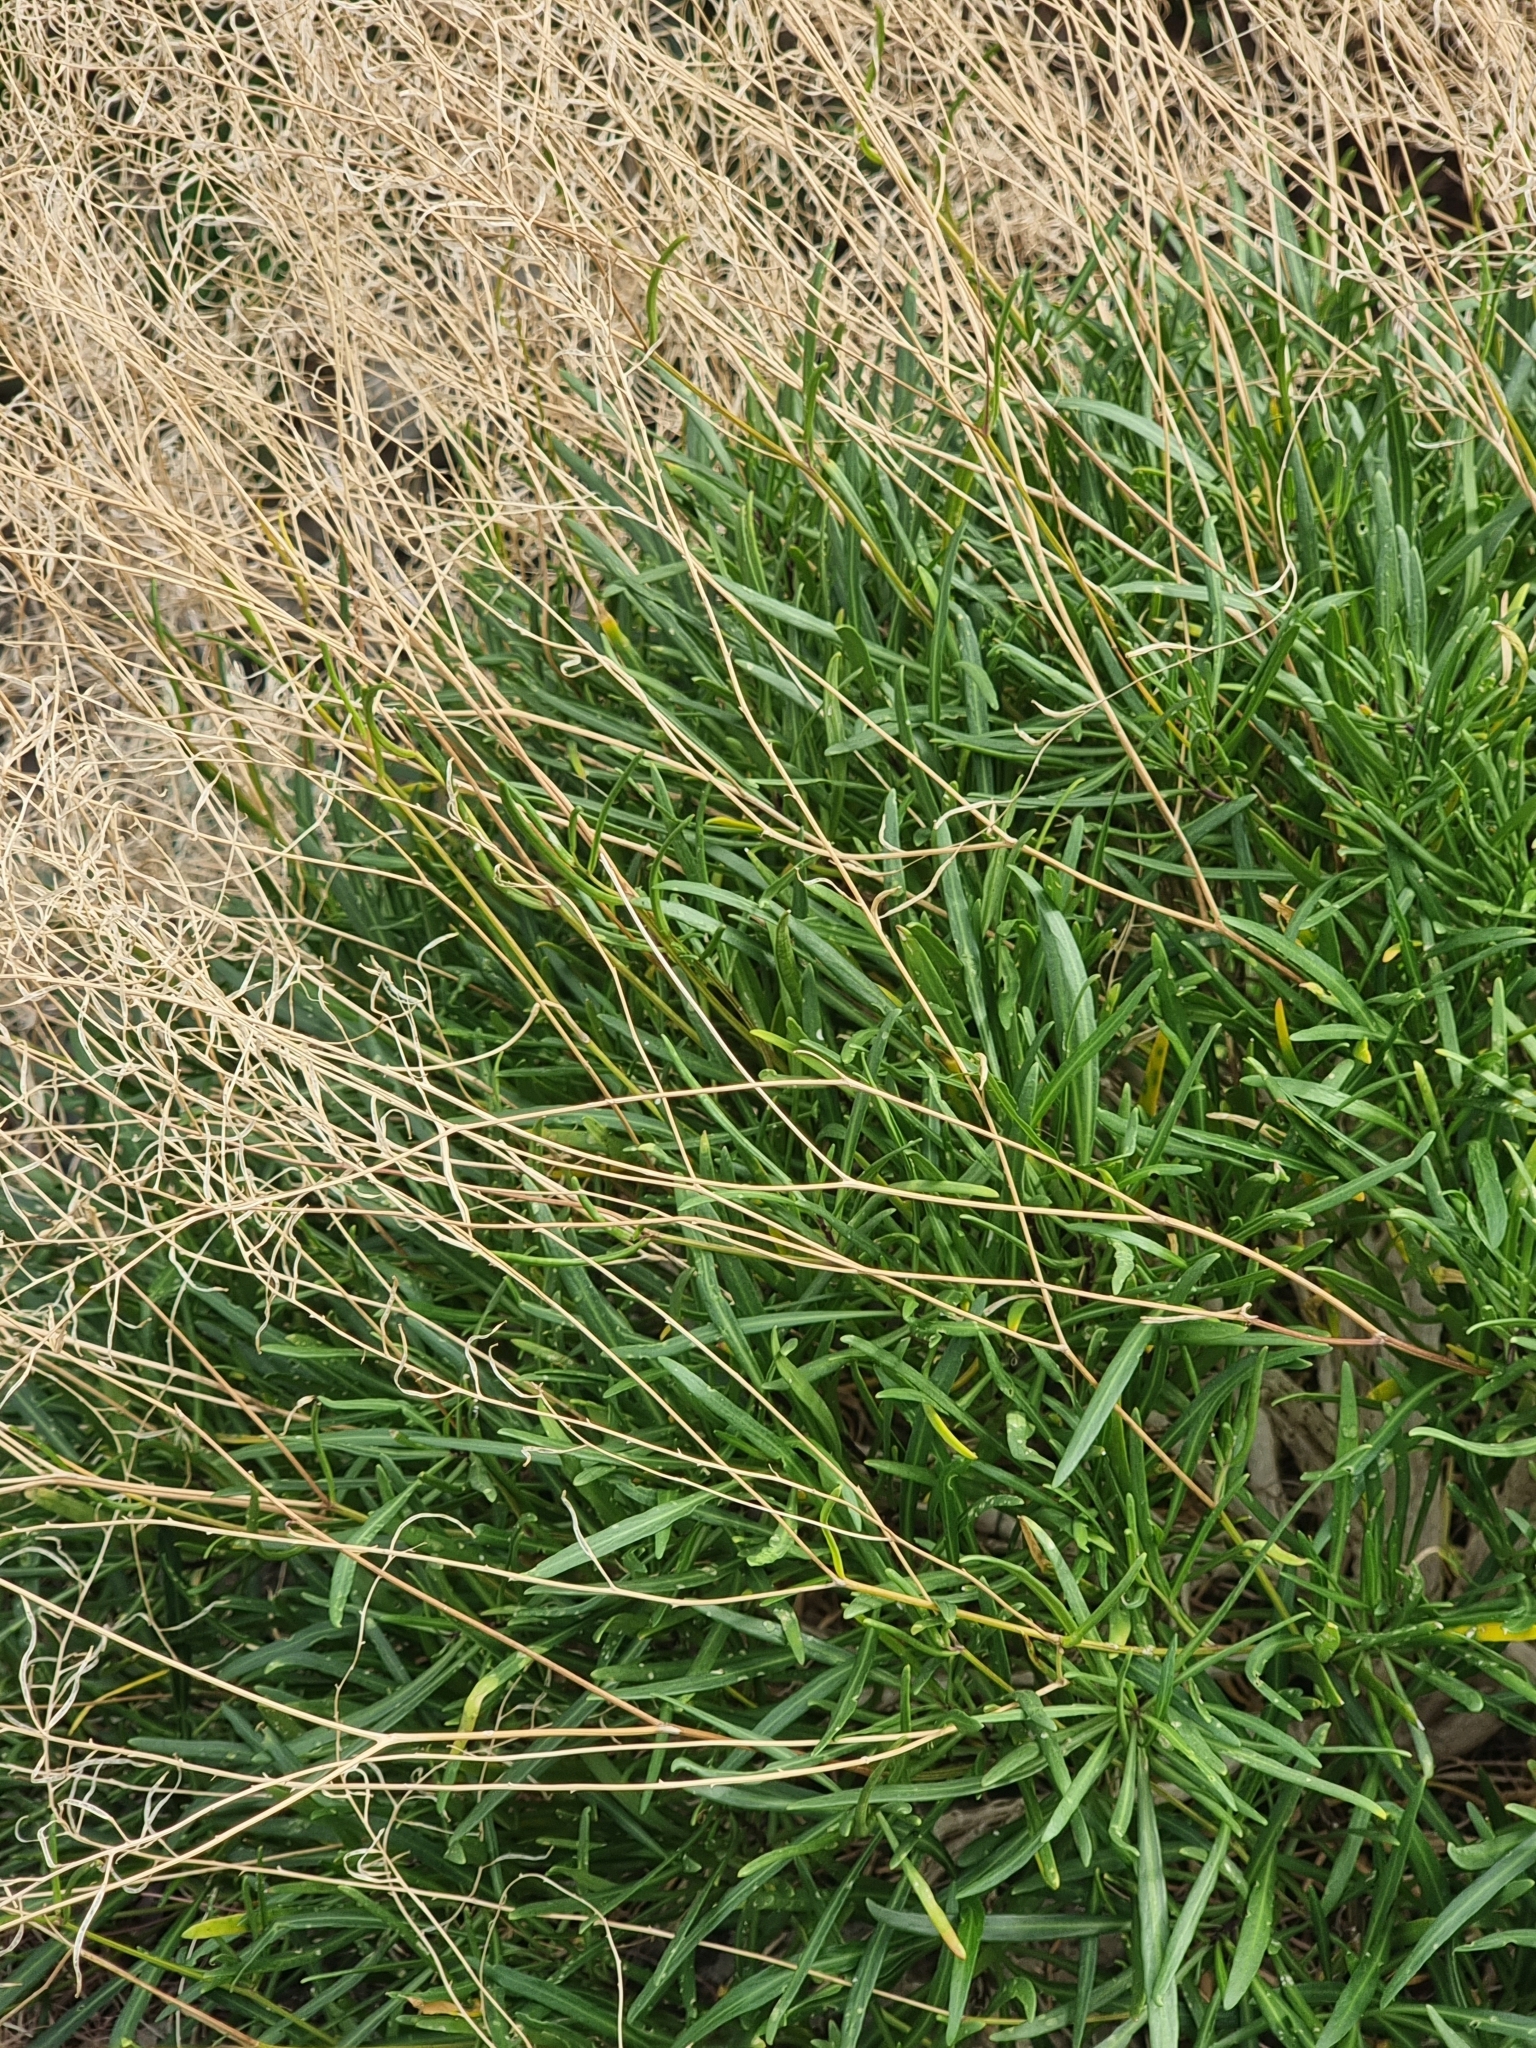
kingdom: Plantae
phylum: Tracheophyta
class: Magnoliopsida
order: Brassicales
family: Brassicaceae
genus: Sinapidendron
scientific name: Sinapidendron angustifolium
